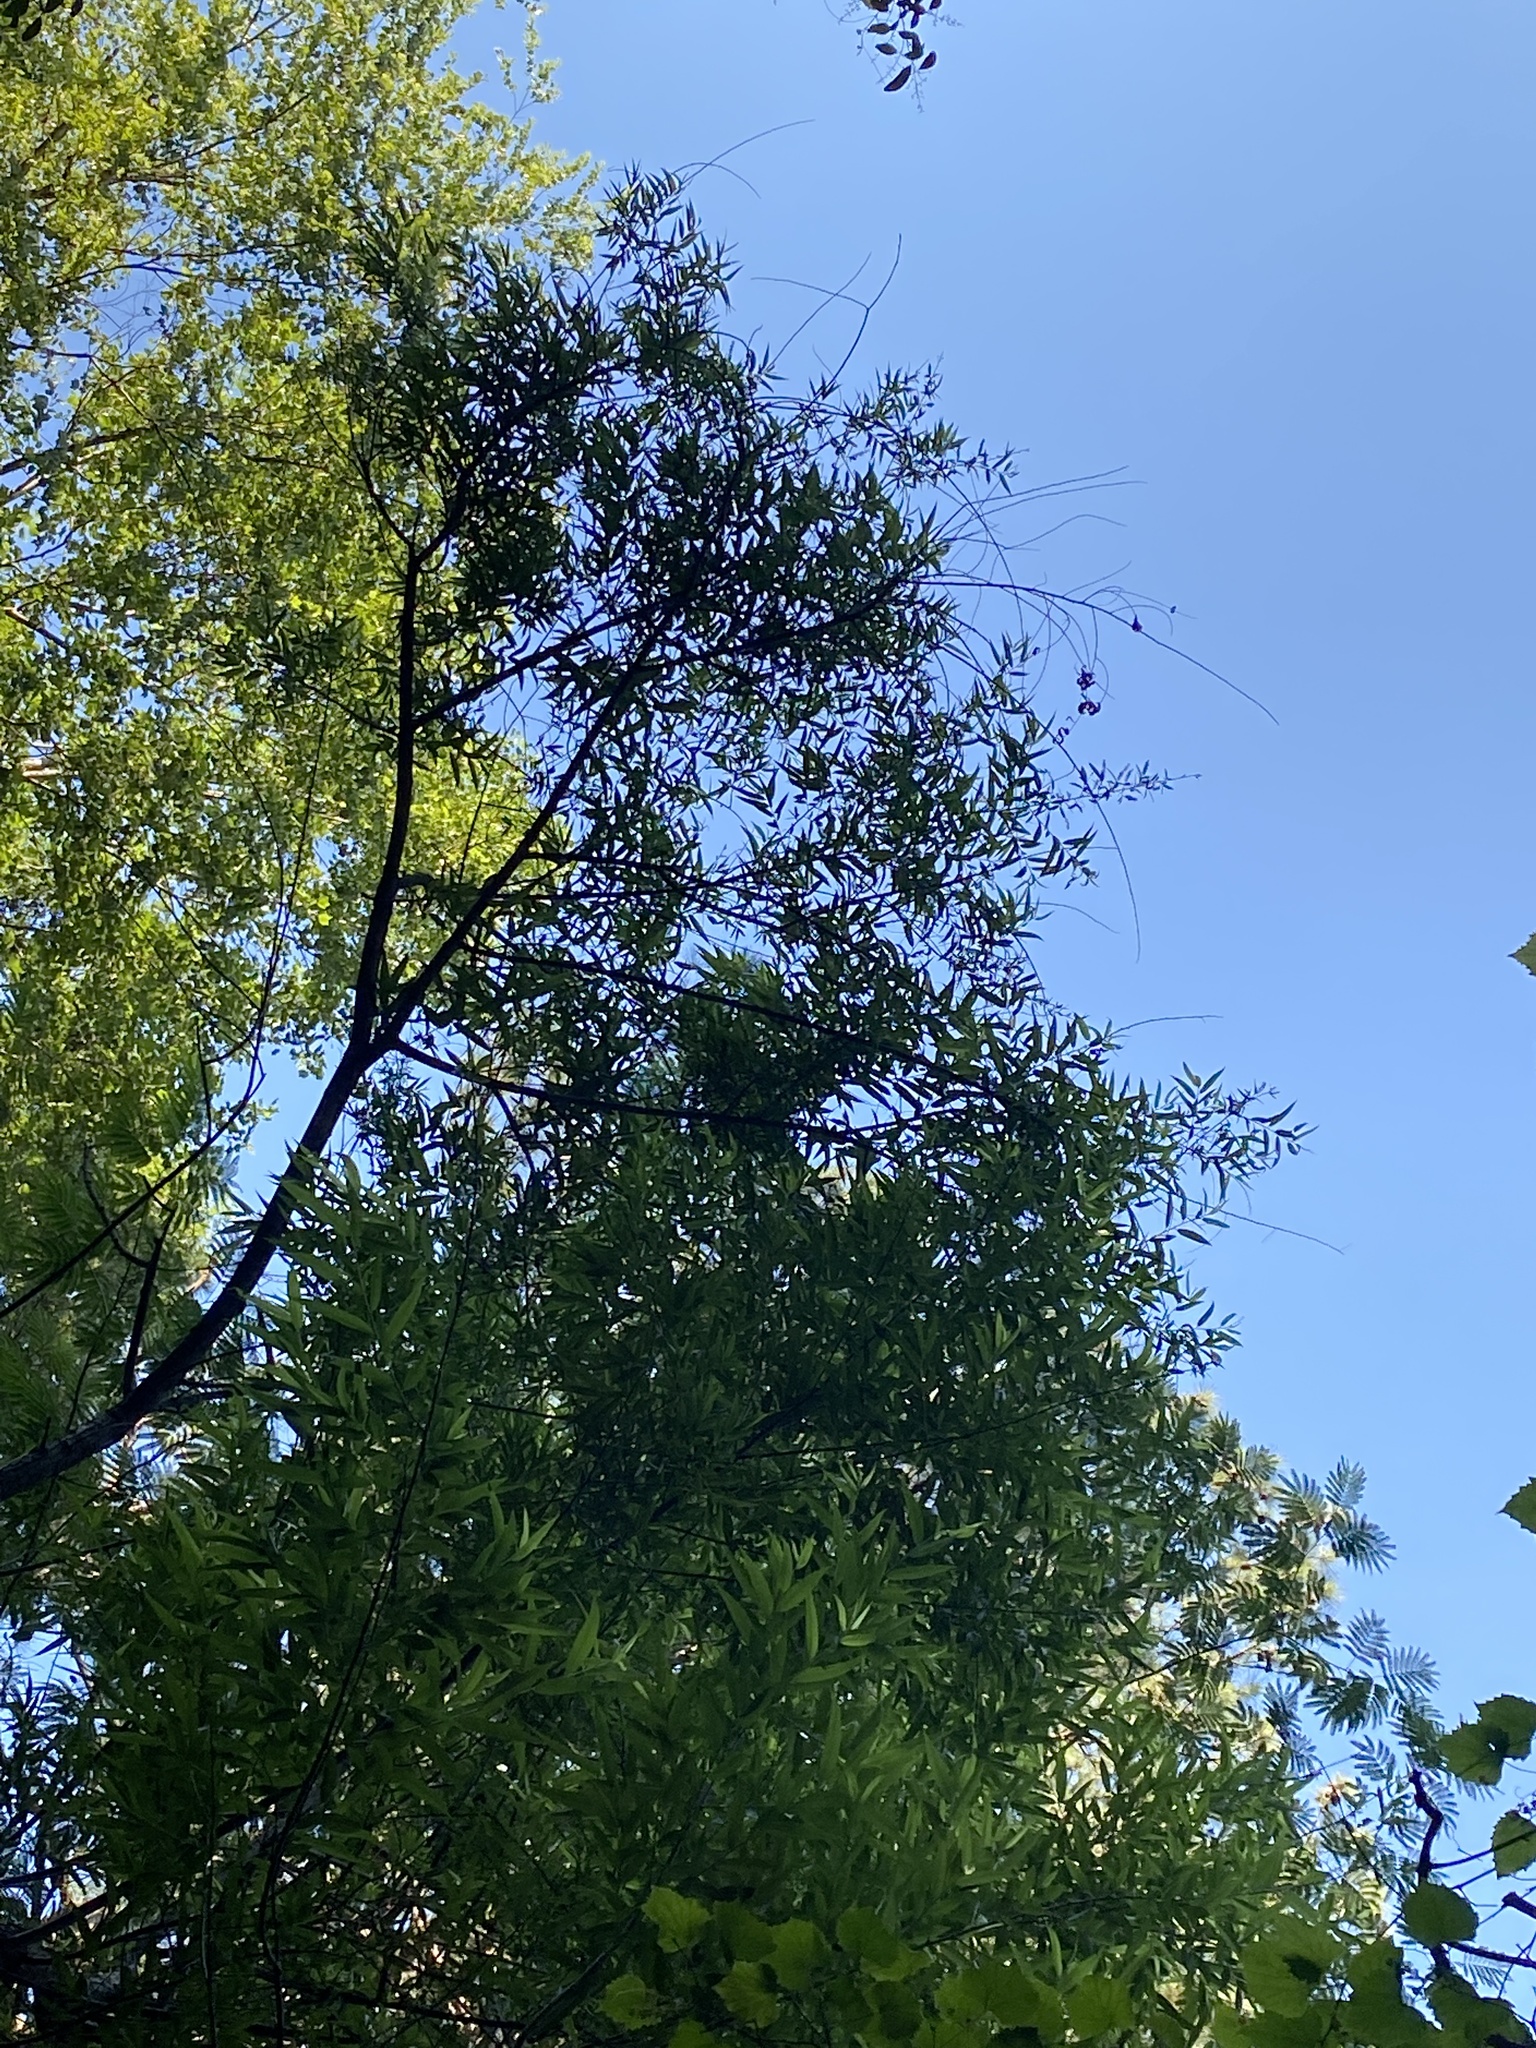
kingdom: Plantae
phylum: Tracheophyta
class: Magnoliopsida
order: Malpighiales
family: Salicaceae
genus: Salix
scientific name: Salix nigra
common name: Black willow
